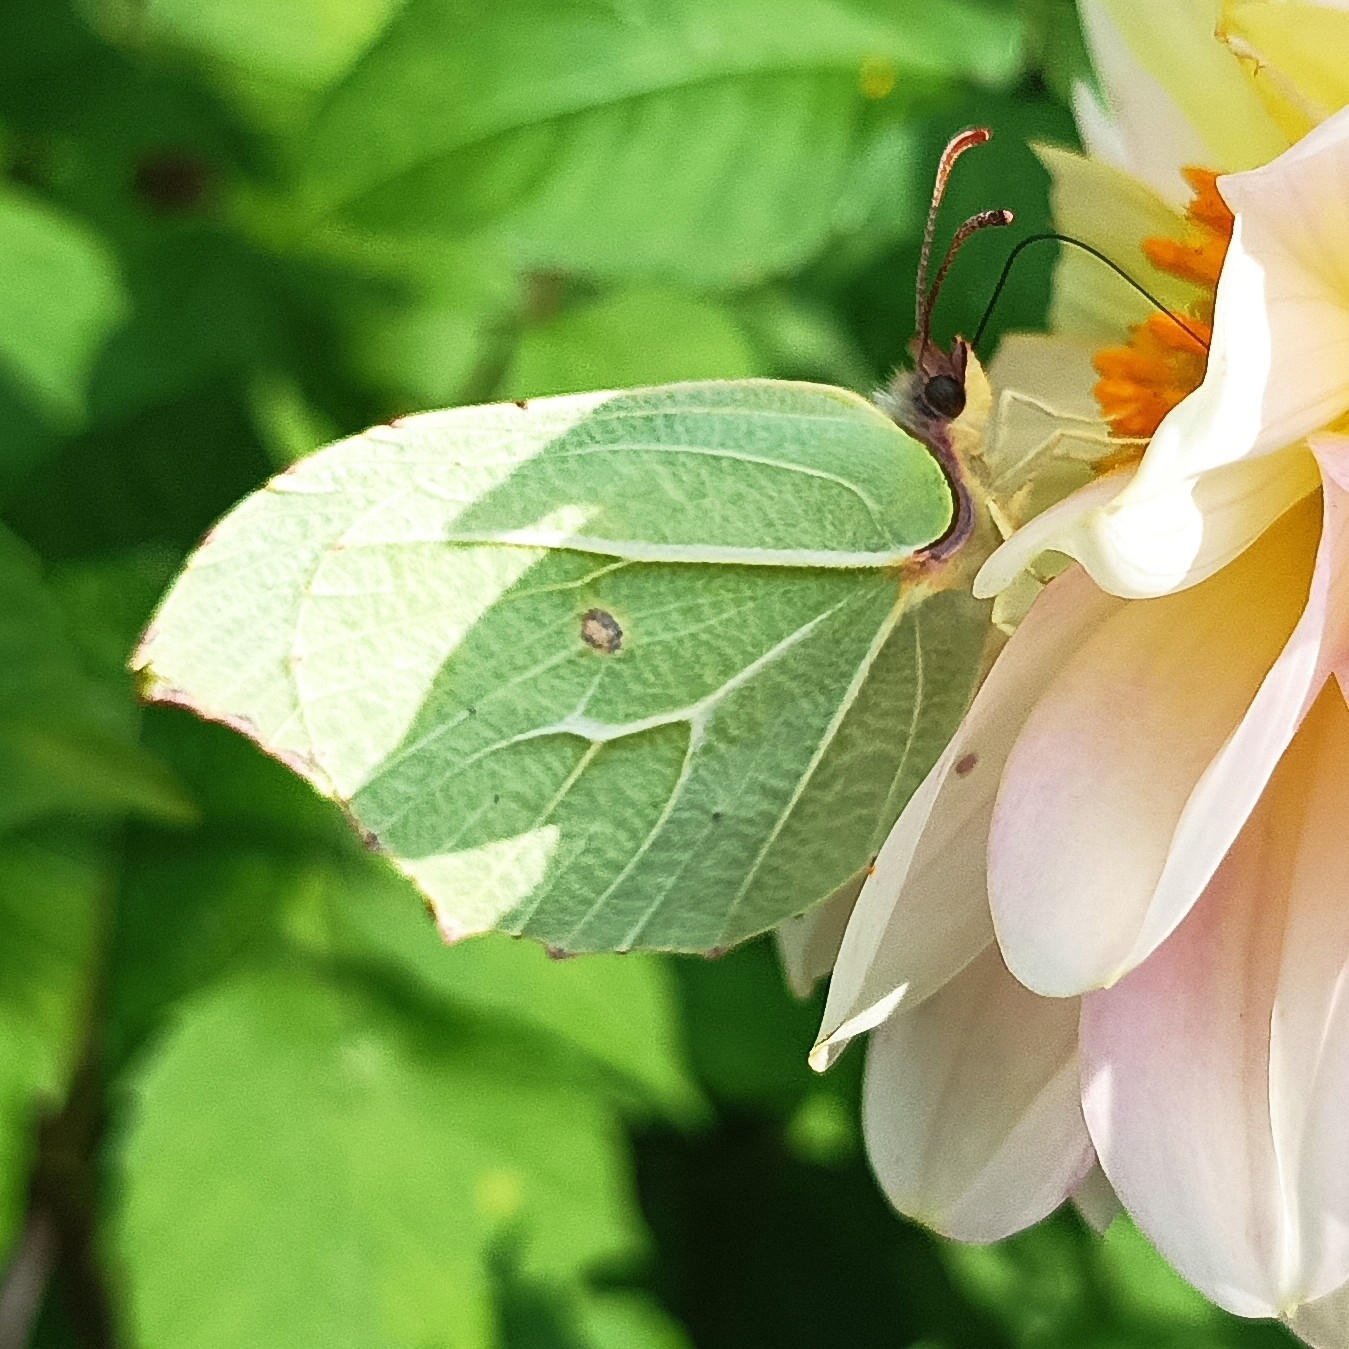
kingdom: Animalia
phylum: Arthropoda
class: Insecta
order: Lepidoptera
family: Pieridae
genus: Gonepteryx
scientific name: Gonepteryx
